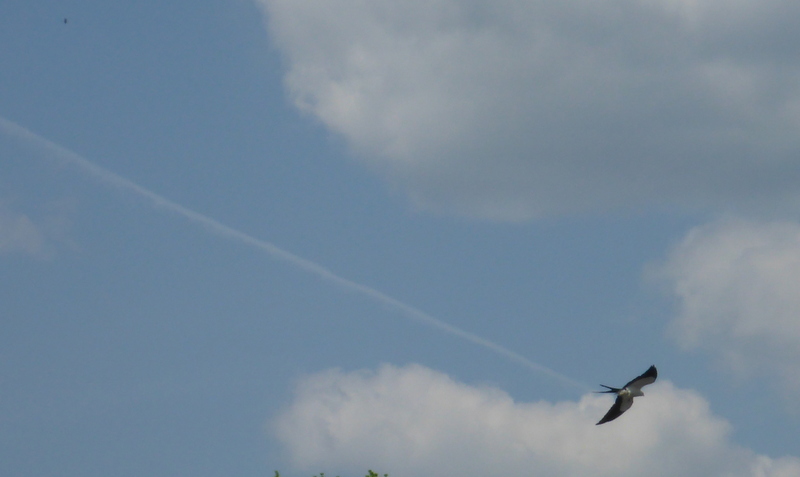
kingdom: Animalia
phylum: Chordata
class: Aves
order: Accipitriformes
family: Accipitridae
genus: Elanoides
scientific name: Elanoides forficatus
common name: Swallow-tailed kite
